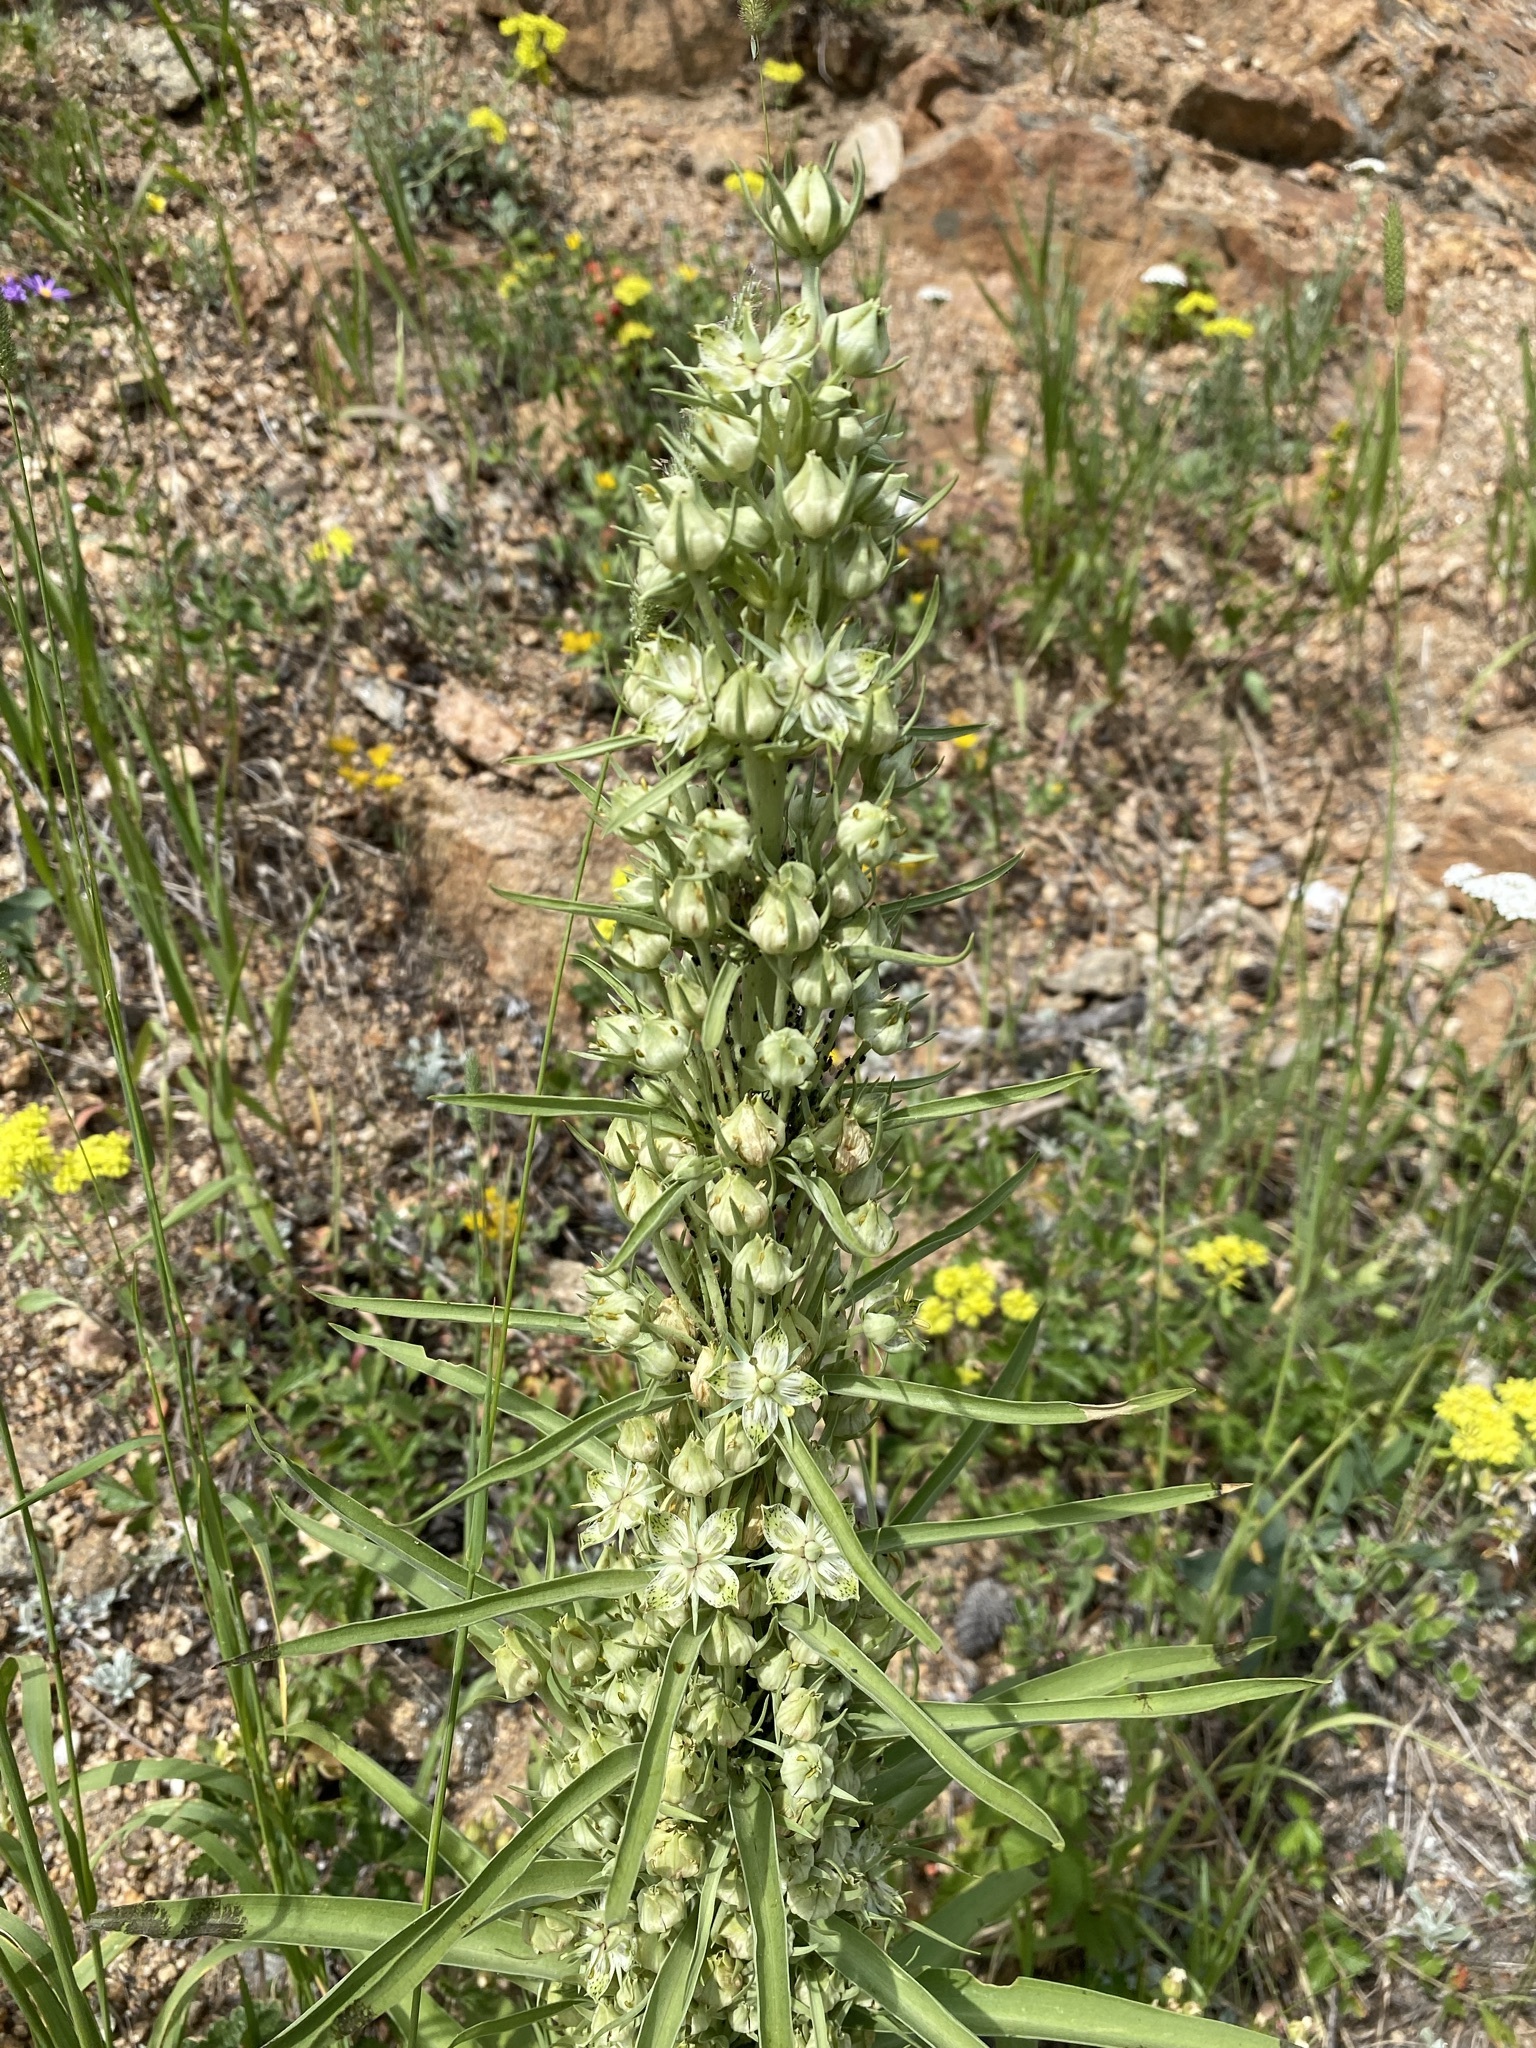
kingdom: Plantae
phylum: Tracheophyta
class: Magnoliopsida
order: Gentianales
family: Gentianaceae
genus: Frasera
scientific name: Frasera speciosa
